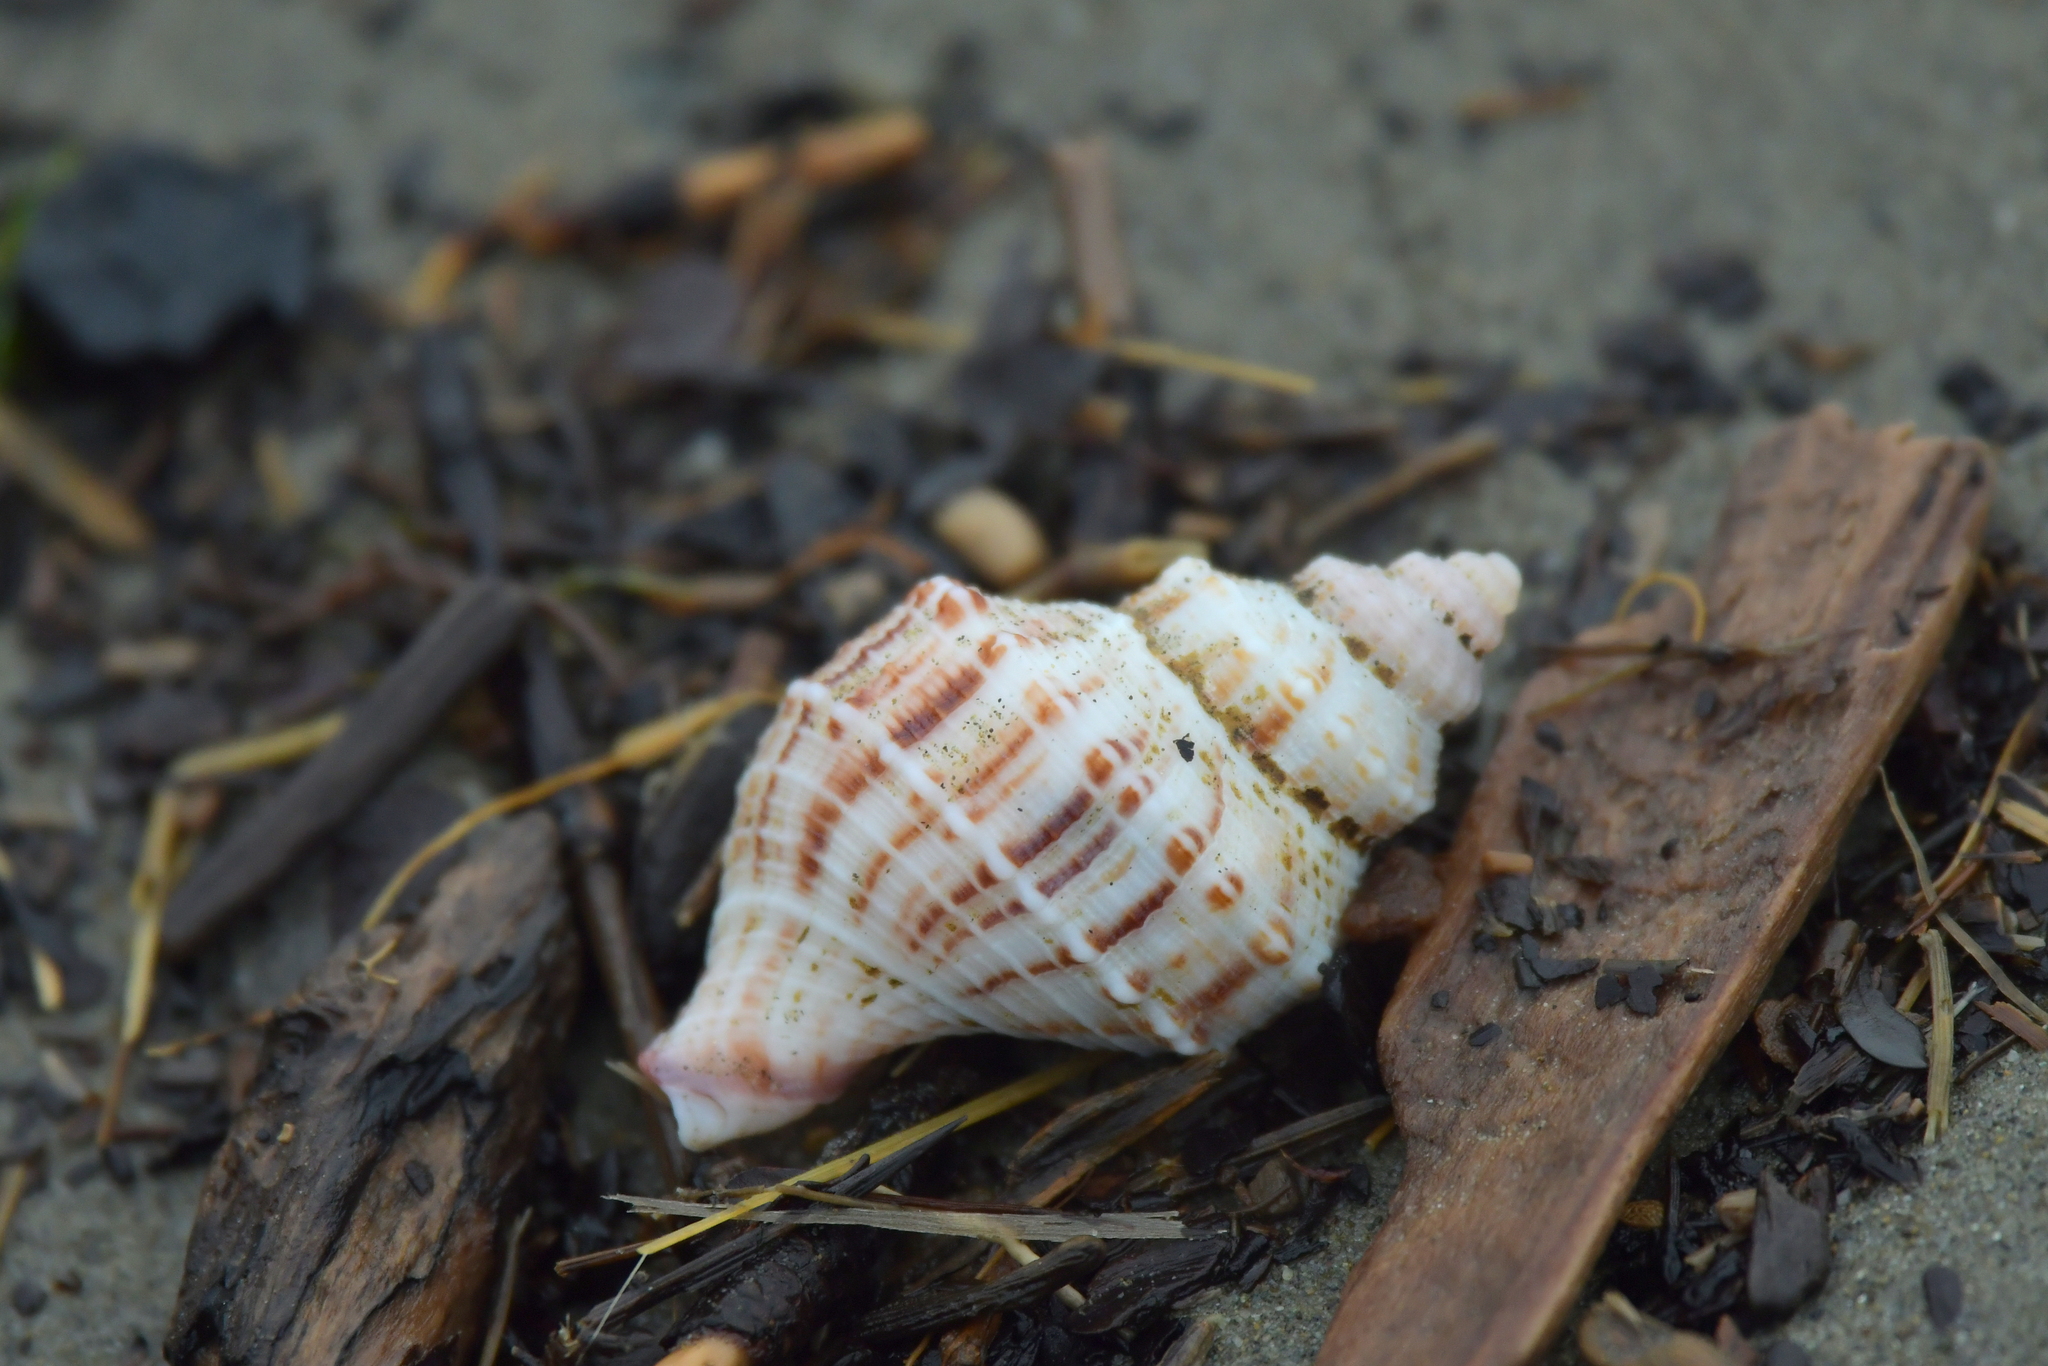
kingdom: Animalia
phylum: Mollusca
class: Gastropoda
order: Neogastropoda
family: Prosiphonidae
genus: Austrofusus
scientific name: Austrofusus glans
